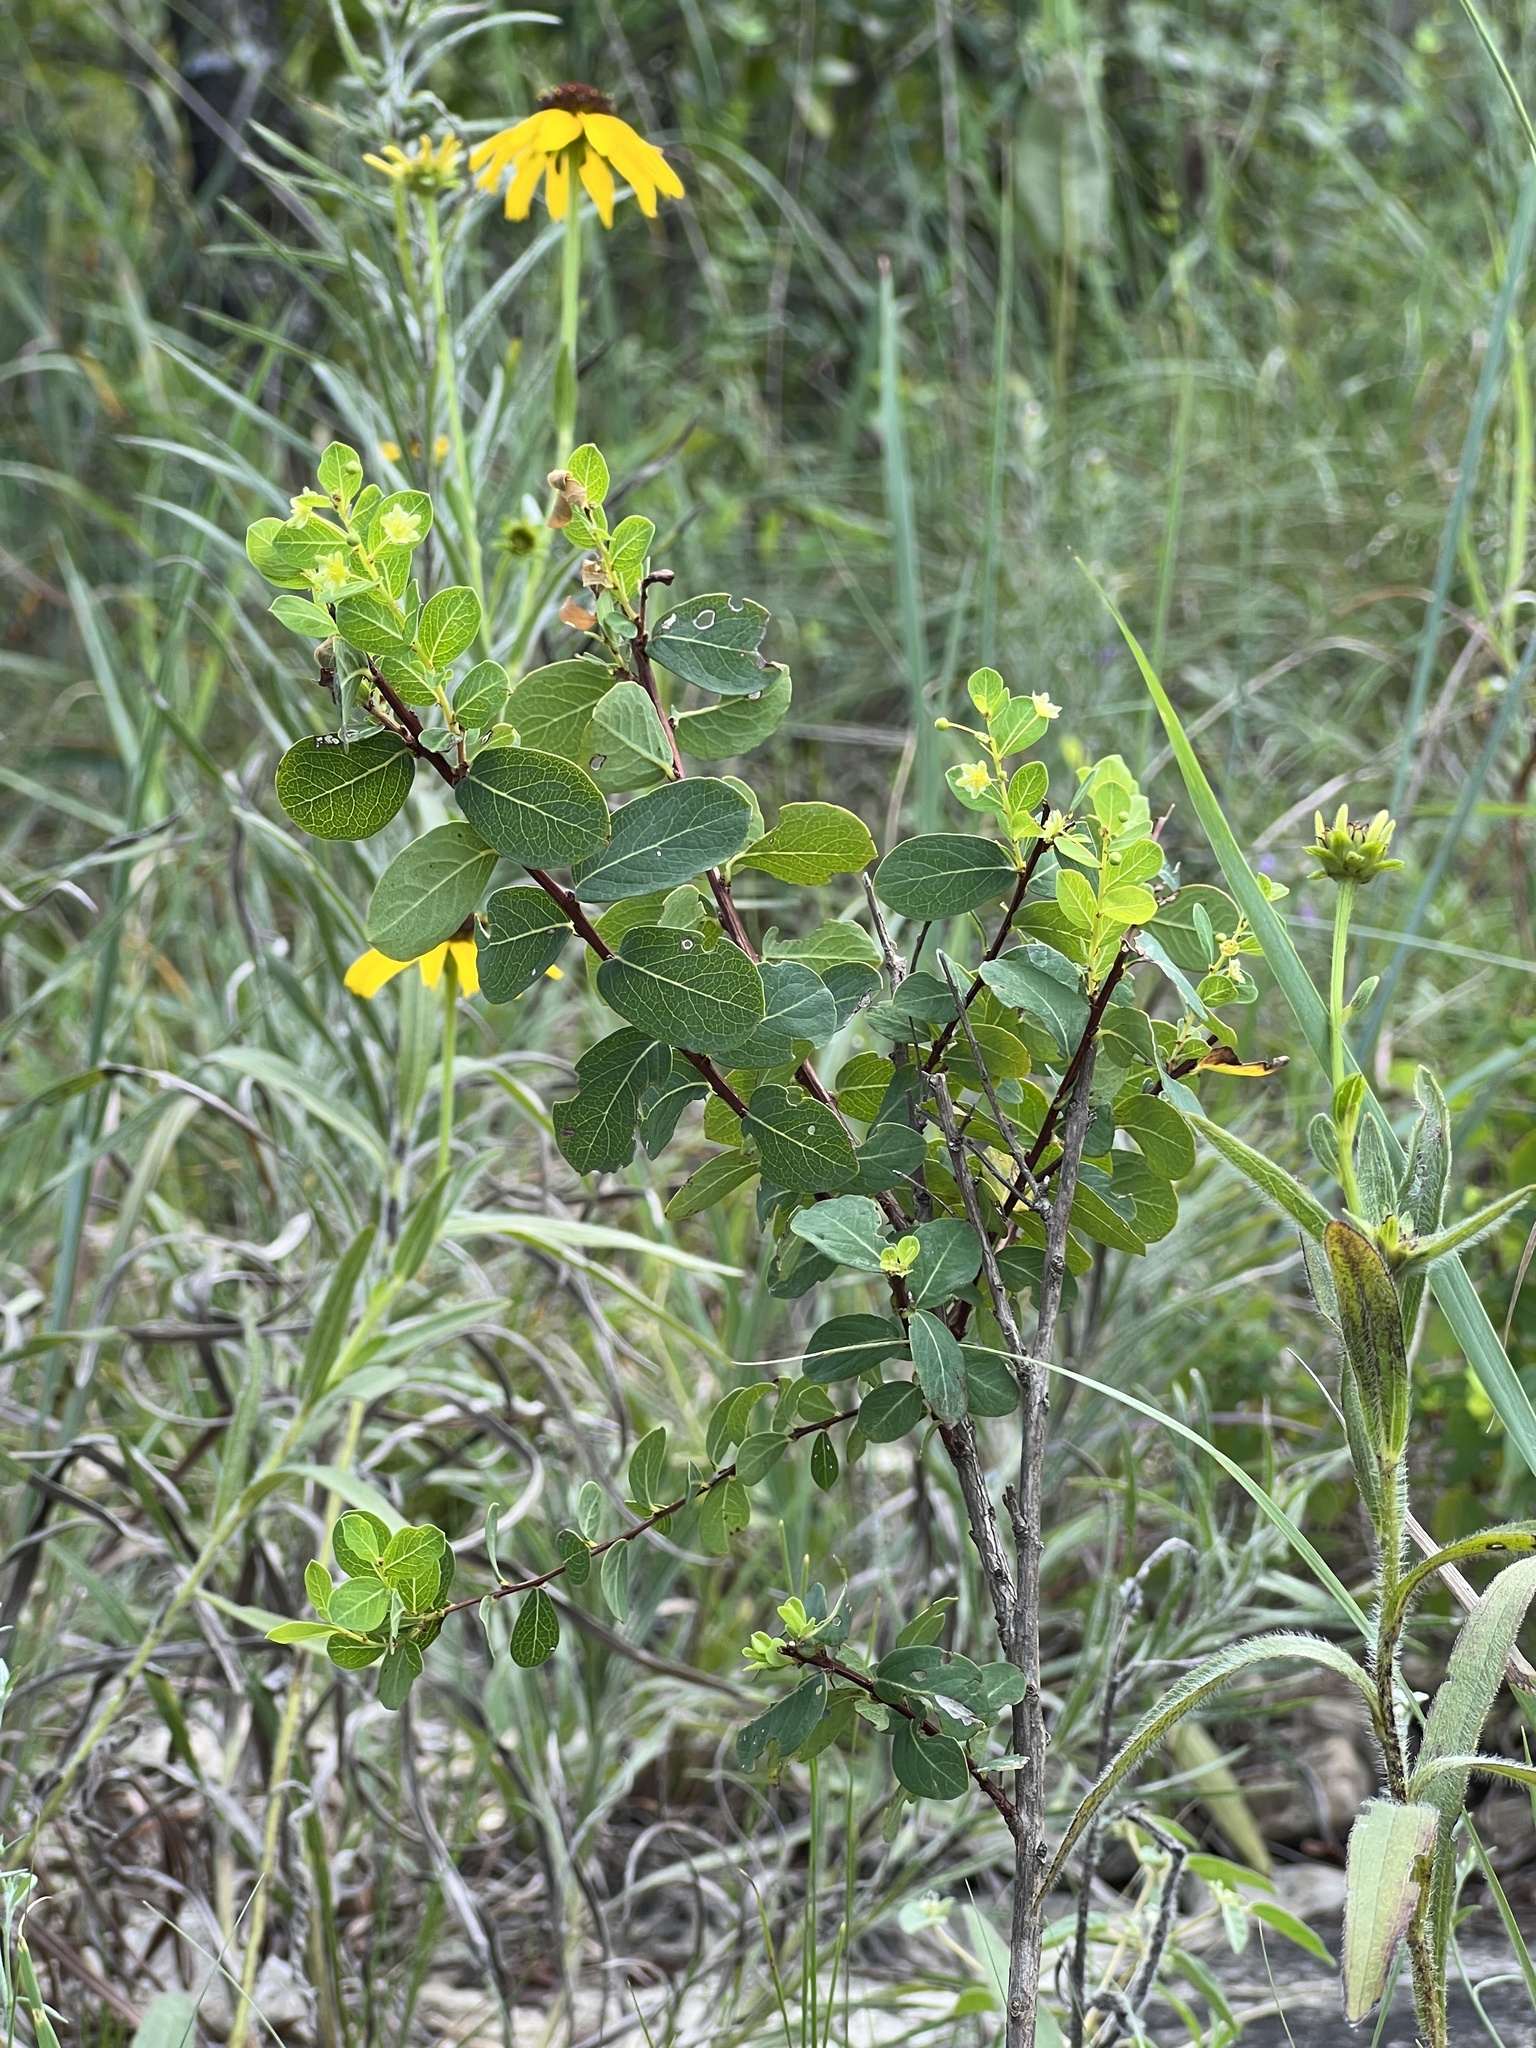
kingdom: Plantae
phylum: Tracheophyta
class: Magnoliopsida
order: Malpighiales
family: Phyllanthaceae
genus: Phyllanthopsis
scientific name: Phyllanthopsis phyllanthoides
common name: Missouri maidenbush
